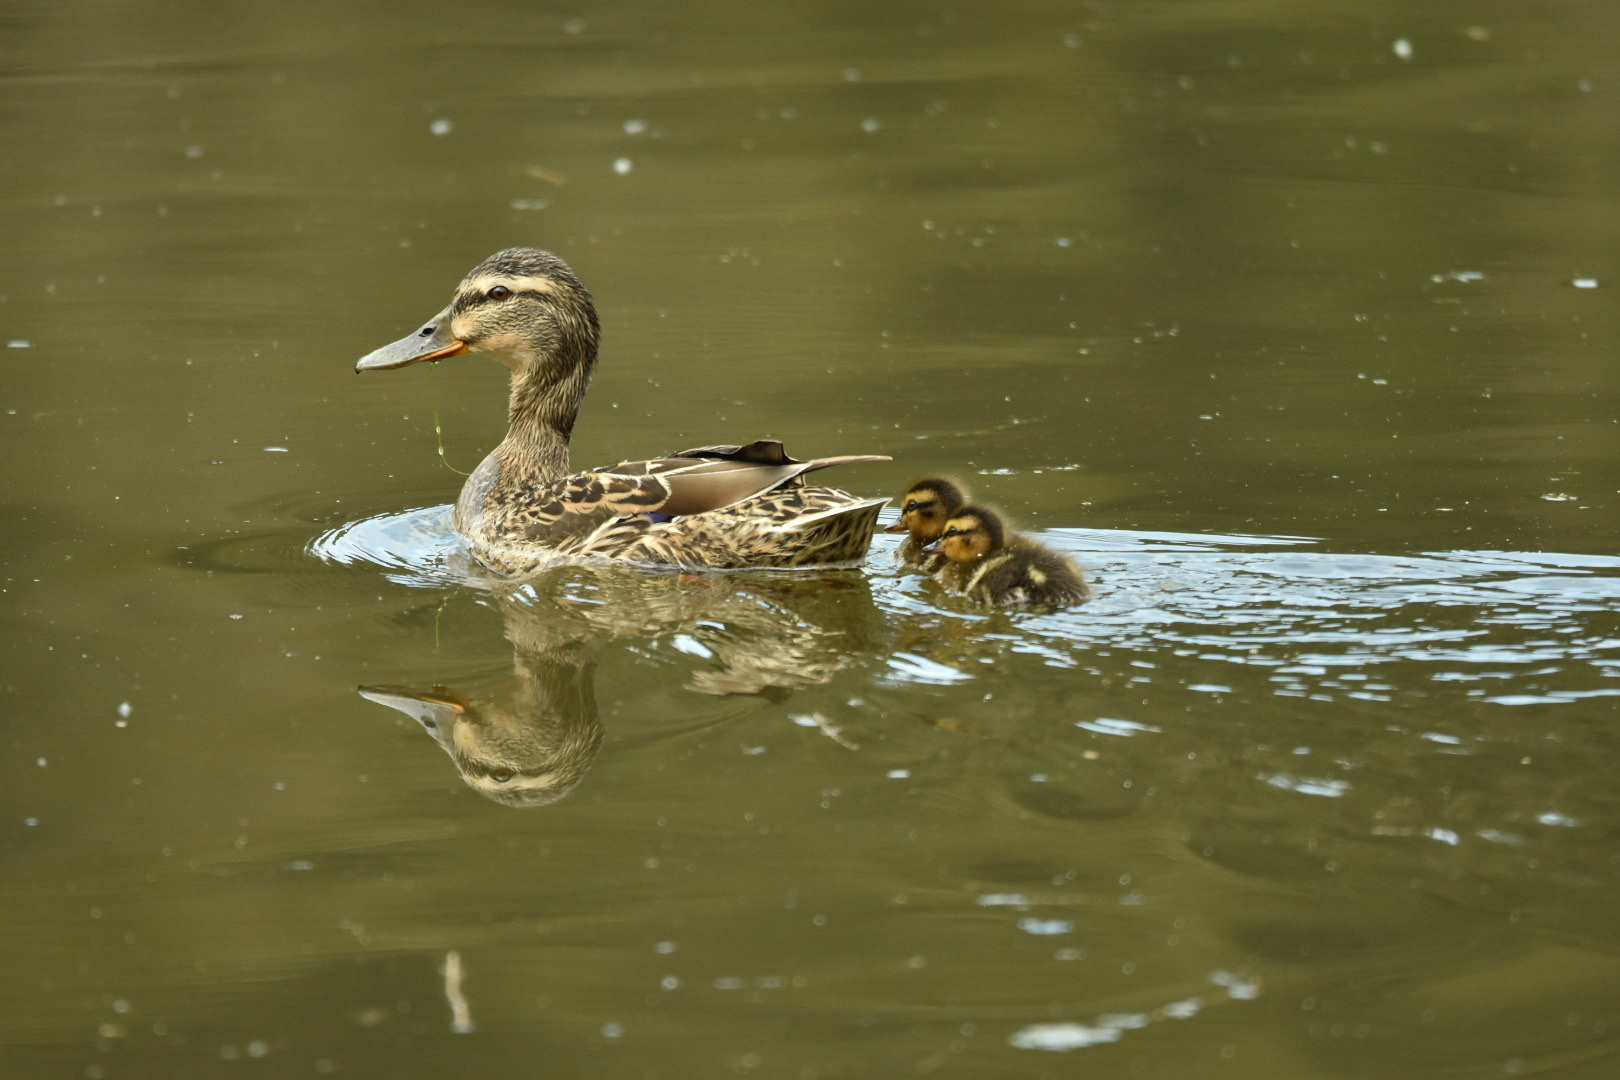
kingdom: Animalia
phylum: Chordata
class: Aves
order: Anseriformes
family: Anatidae
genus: Anas
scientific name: Anas platyrhynchos
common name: Mallard
